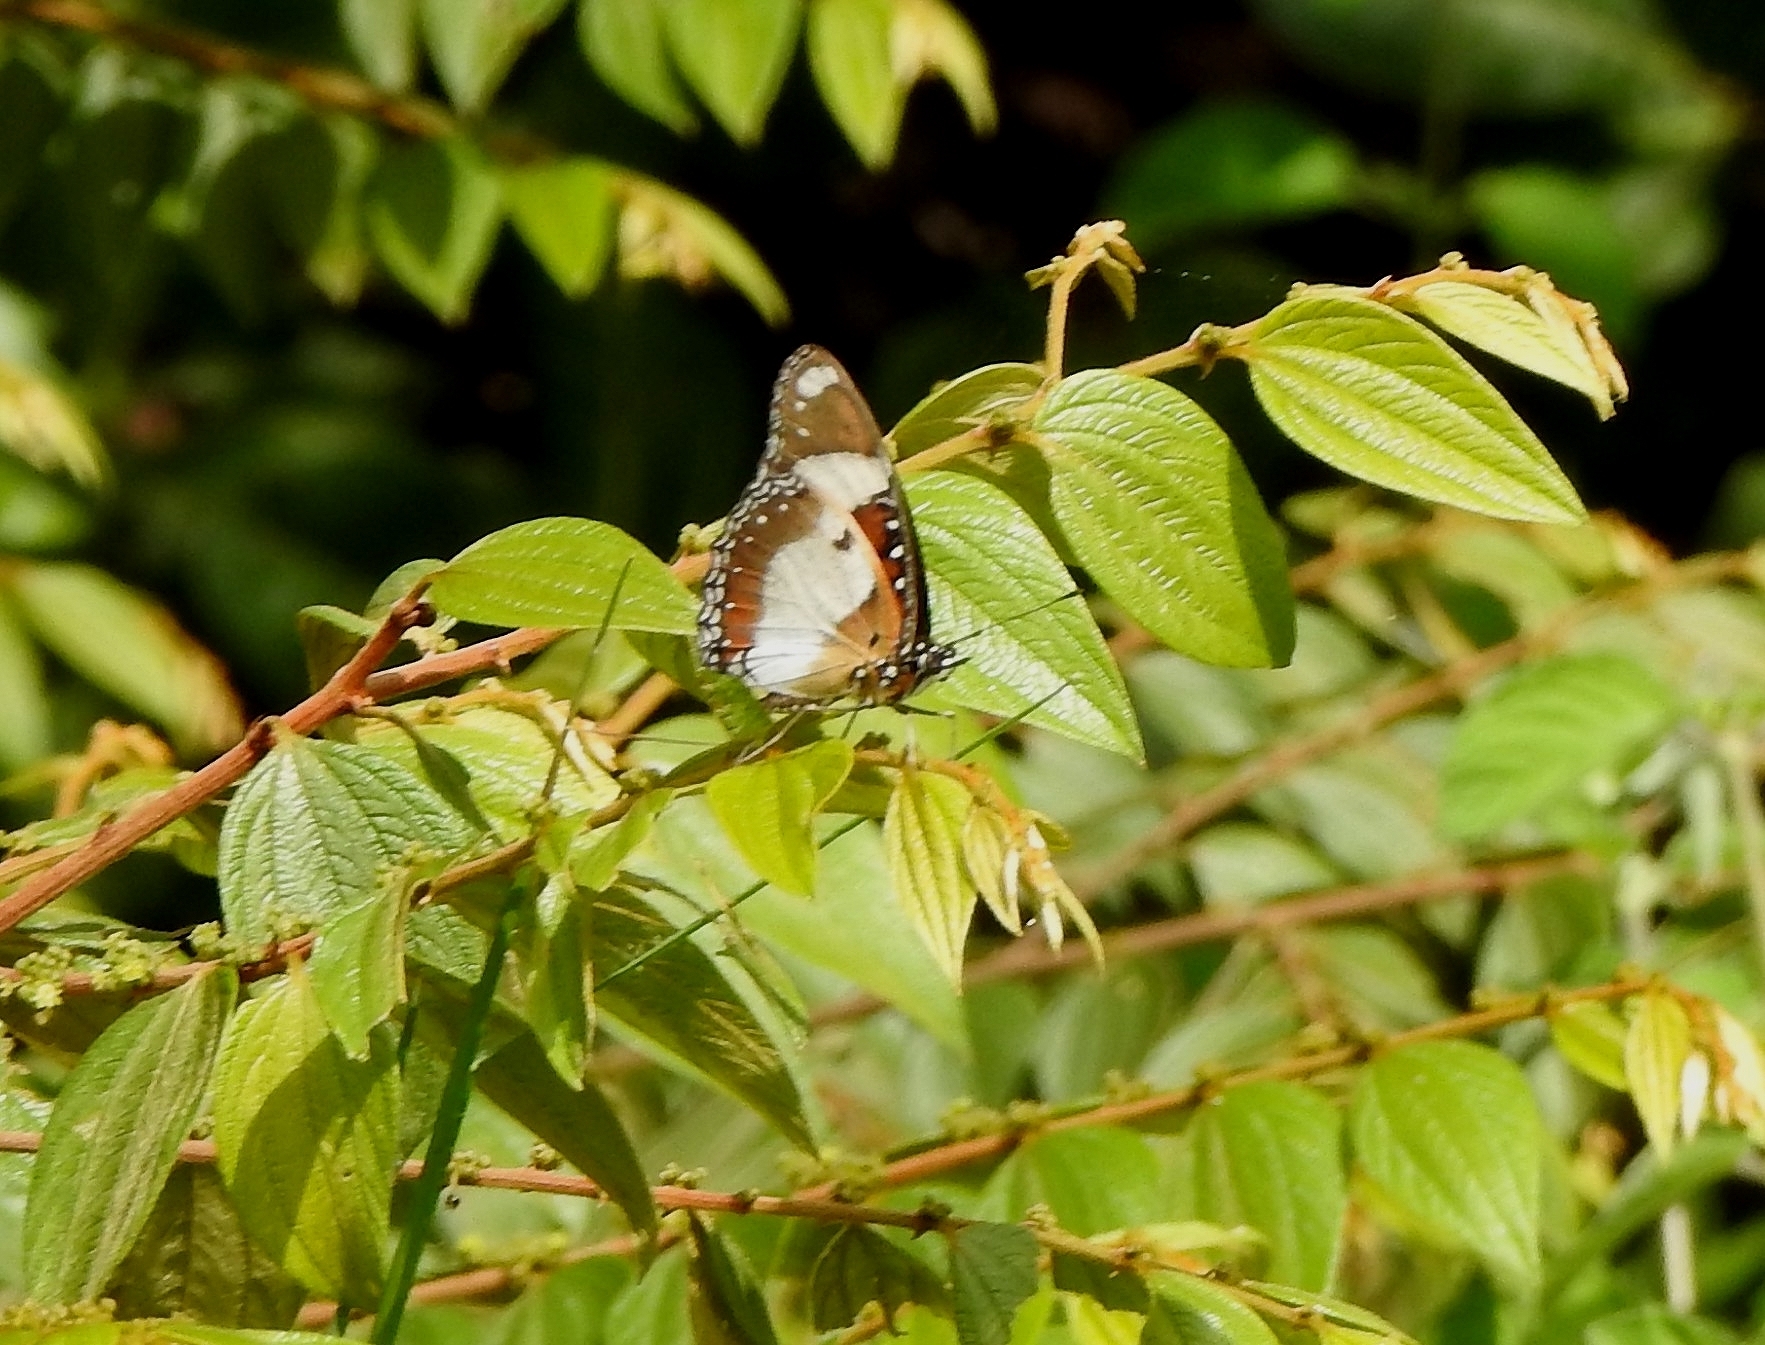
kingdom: Animalia
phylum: Arthropoda
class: Insecta
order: Lepidoptera
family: Nymphalidae
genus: Hypolimnas
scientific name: Hypolimnas misippus
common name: False plain tiger
